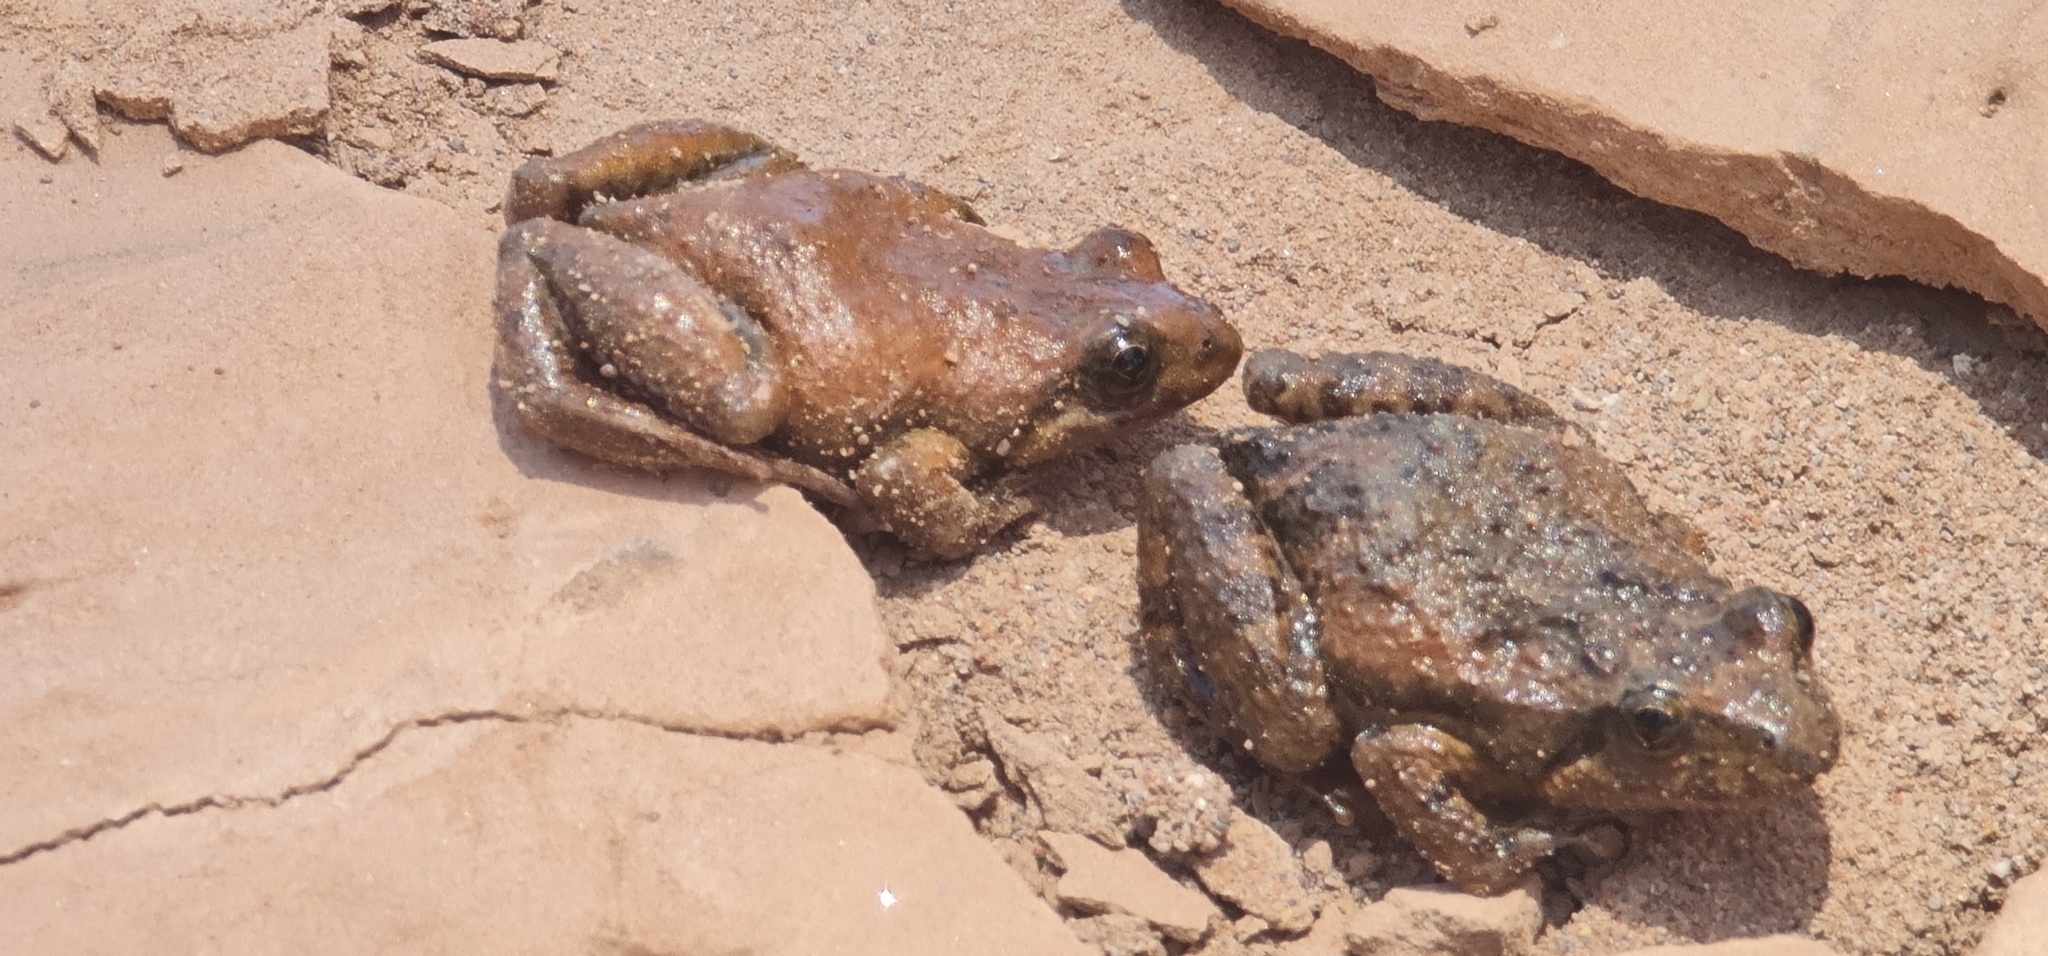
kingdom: Animalia
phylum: Chordata
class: Amphibia
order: Anura
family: Myobatrachidae
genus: Crinia
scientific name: Crinia flindersensis
